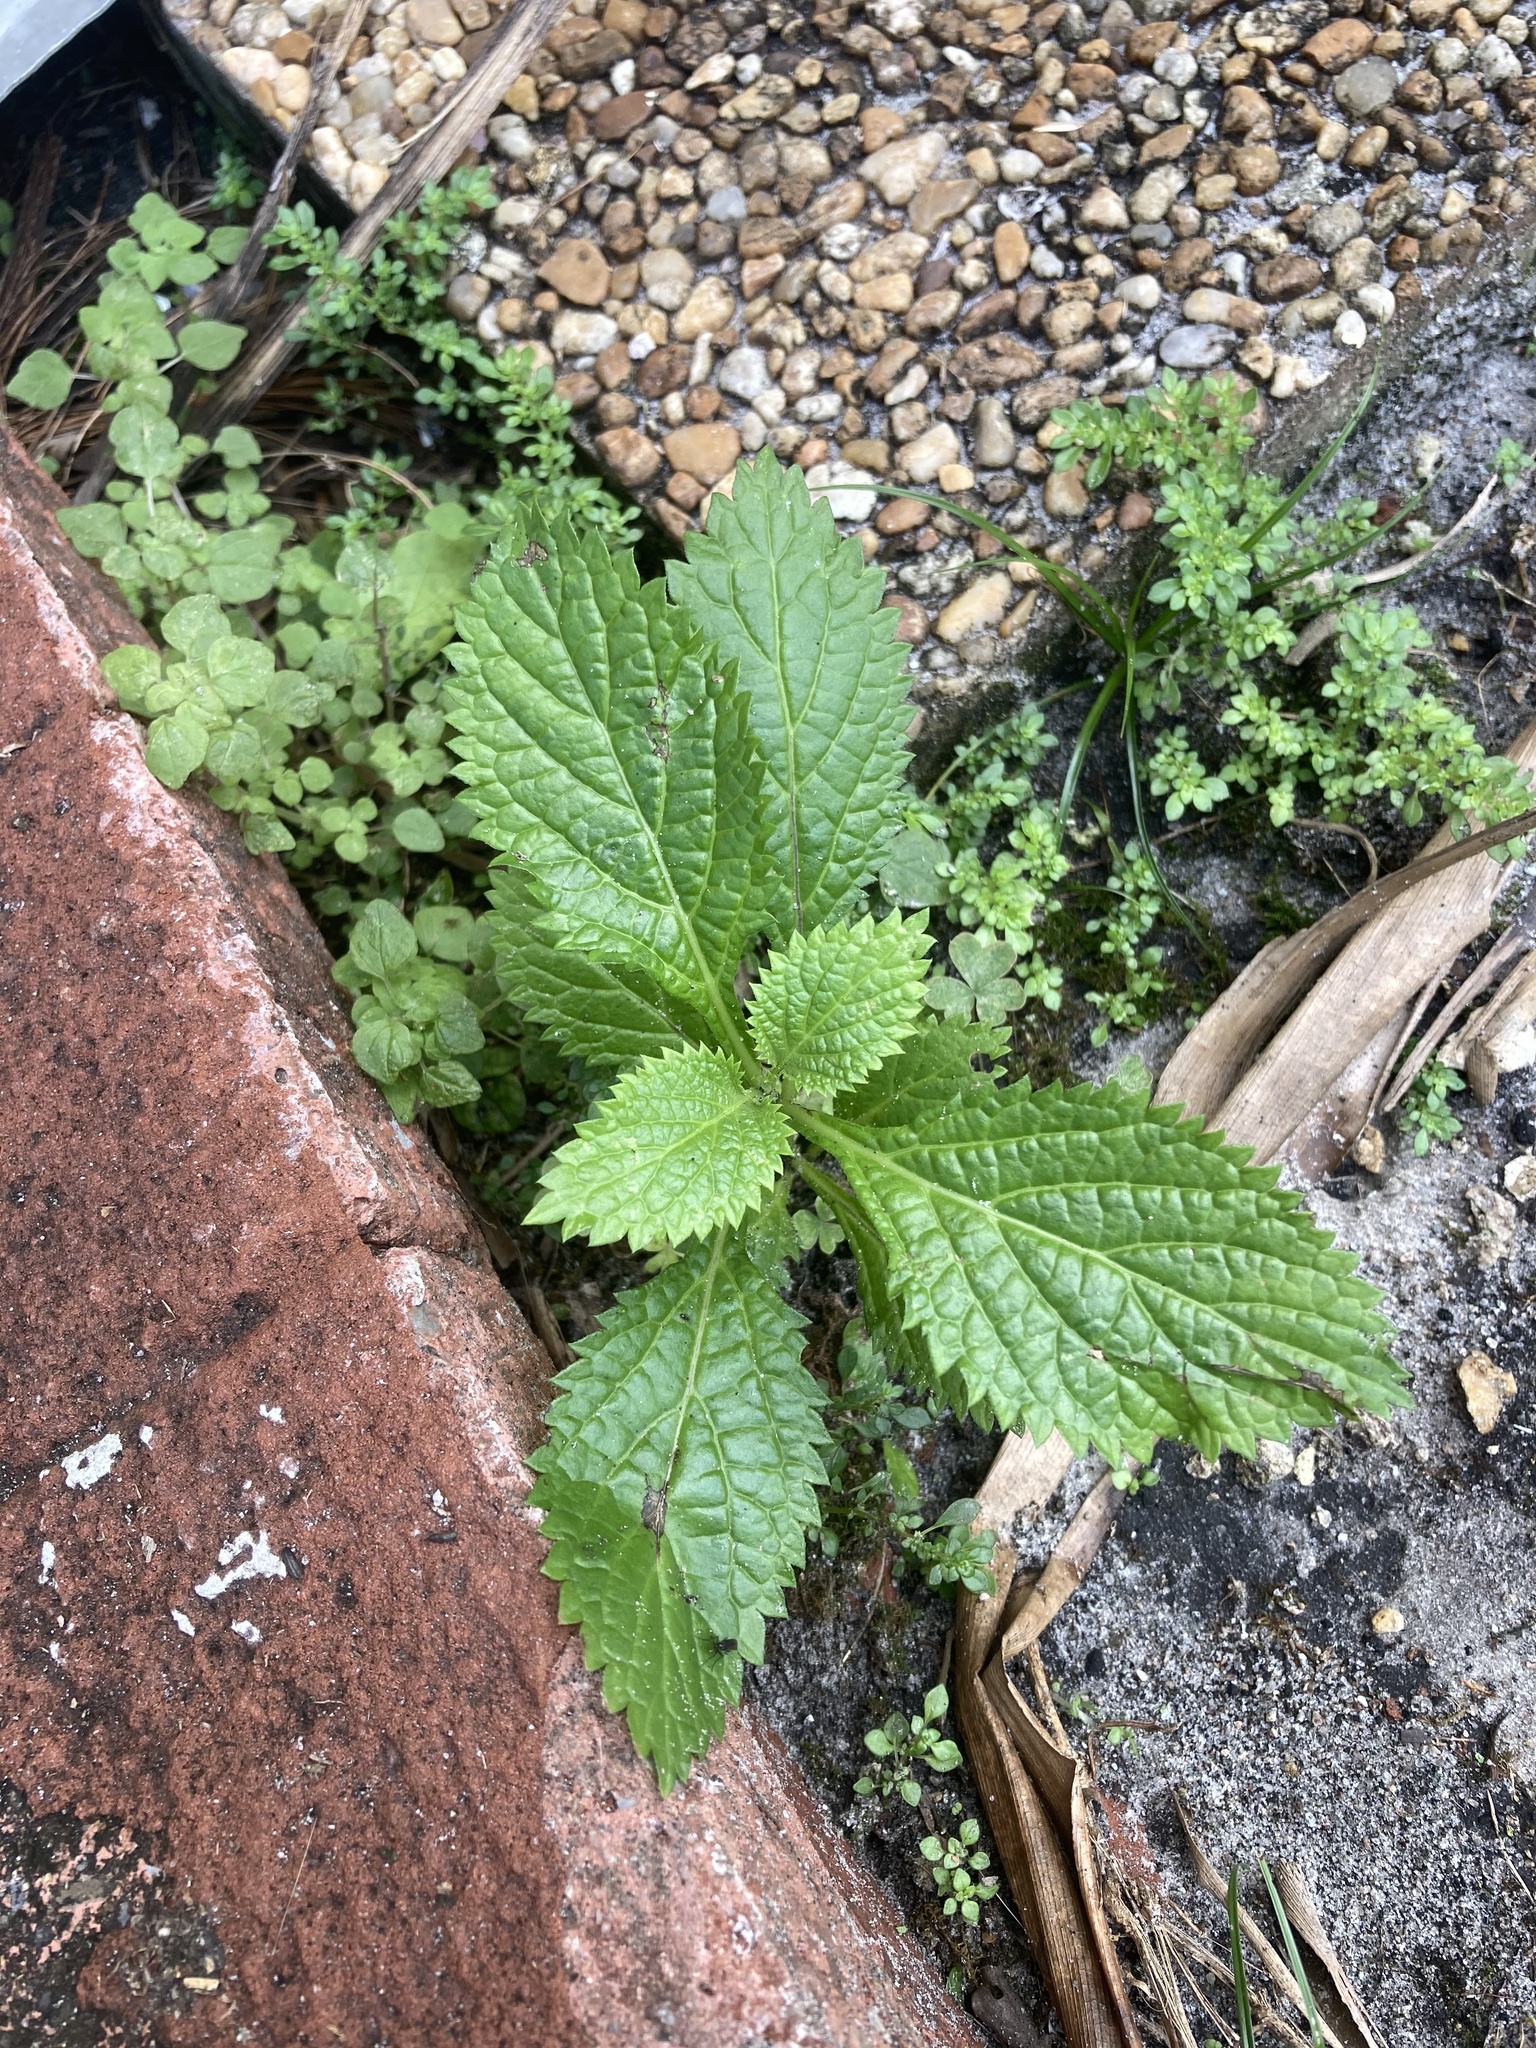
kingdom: Plantae
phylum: Tracheophyta
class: Magnoliopsida
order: Lamiales
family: Verbenaceae
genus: Stachytarpheta
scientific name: Stachytarpheta cayennensis
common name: Cayenne porterweed
